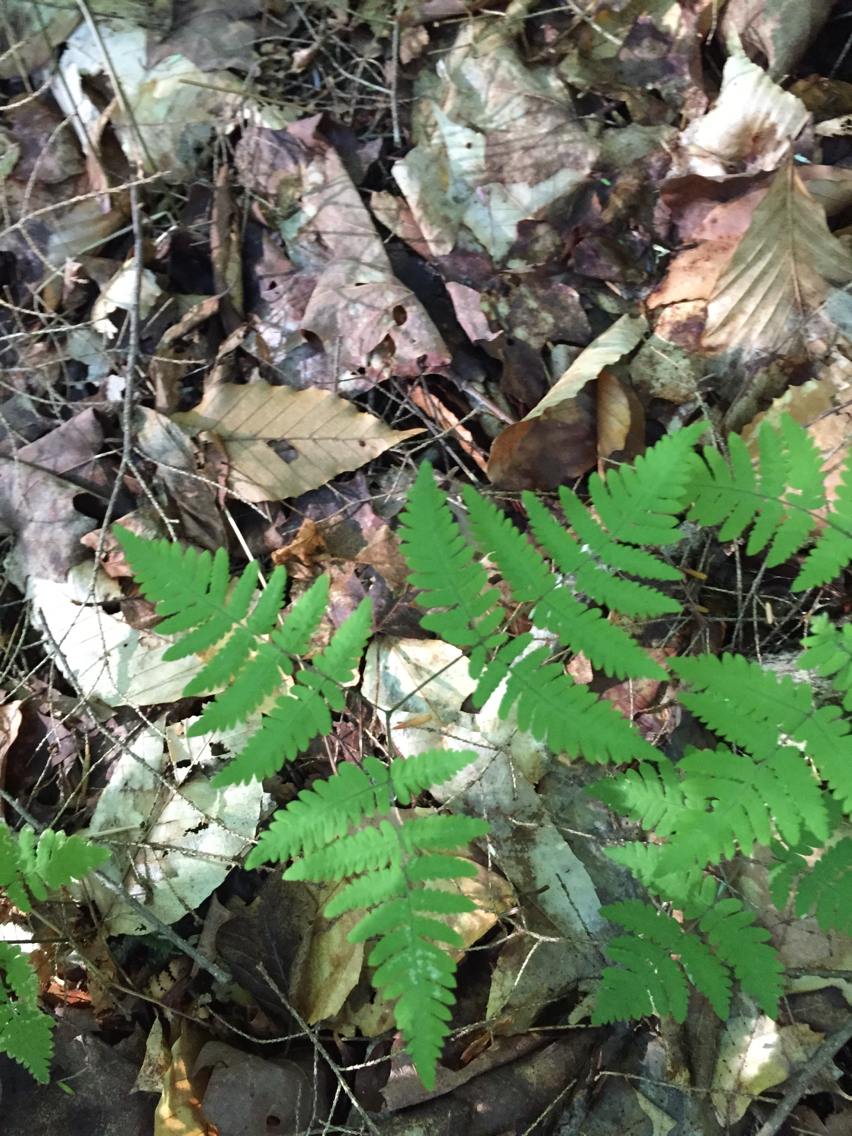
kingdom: Plantae
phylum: Tracheophyta
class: Polypodiopsida
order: Polypodiales
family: Cystopteridaceae
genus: Gymnocarpium
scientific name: Gymnocarpium dryopteris
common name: Oak fern
